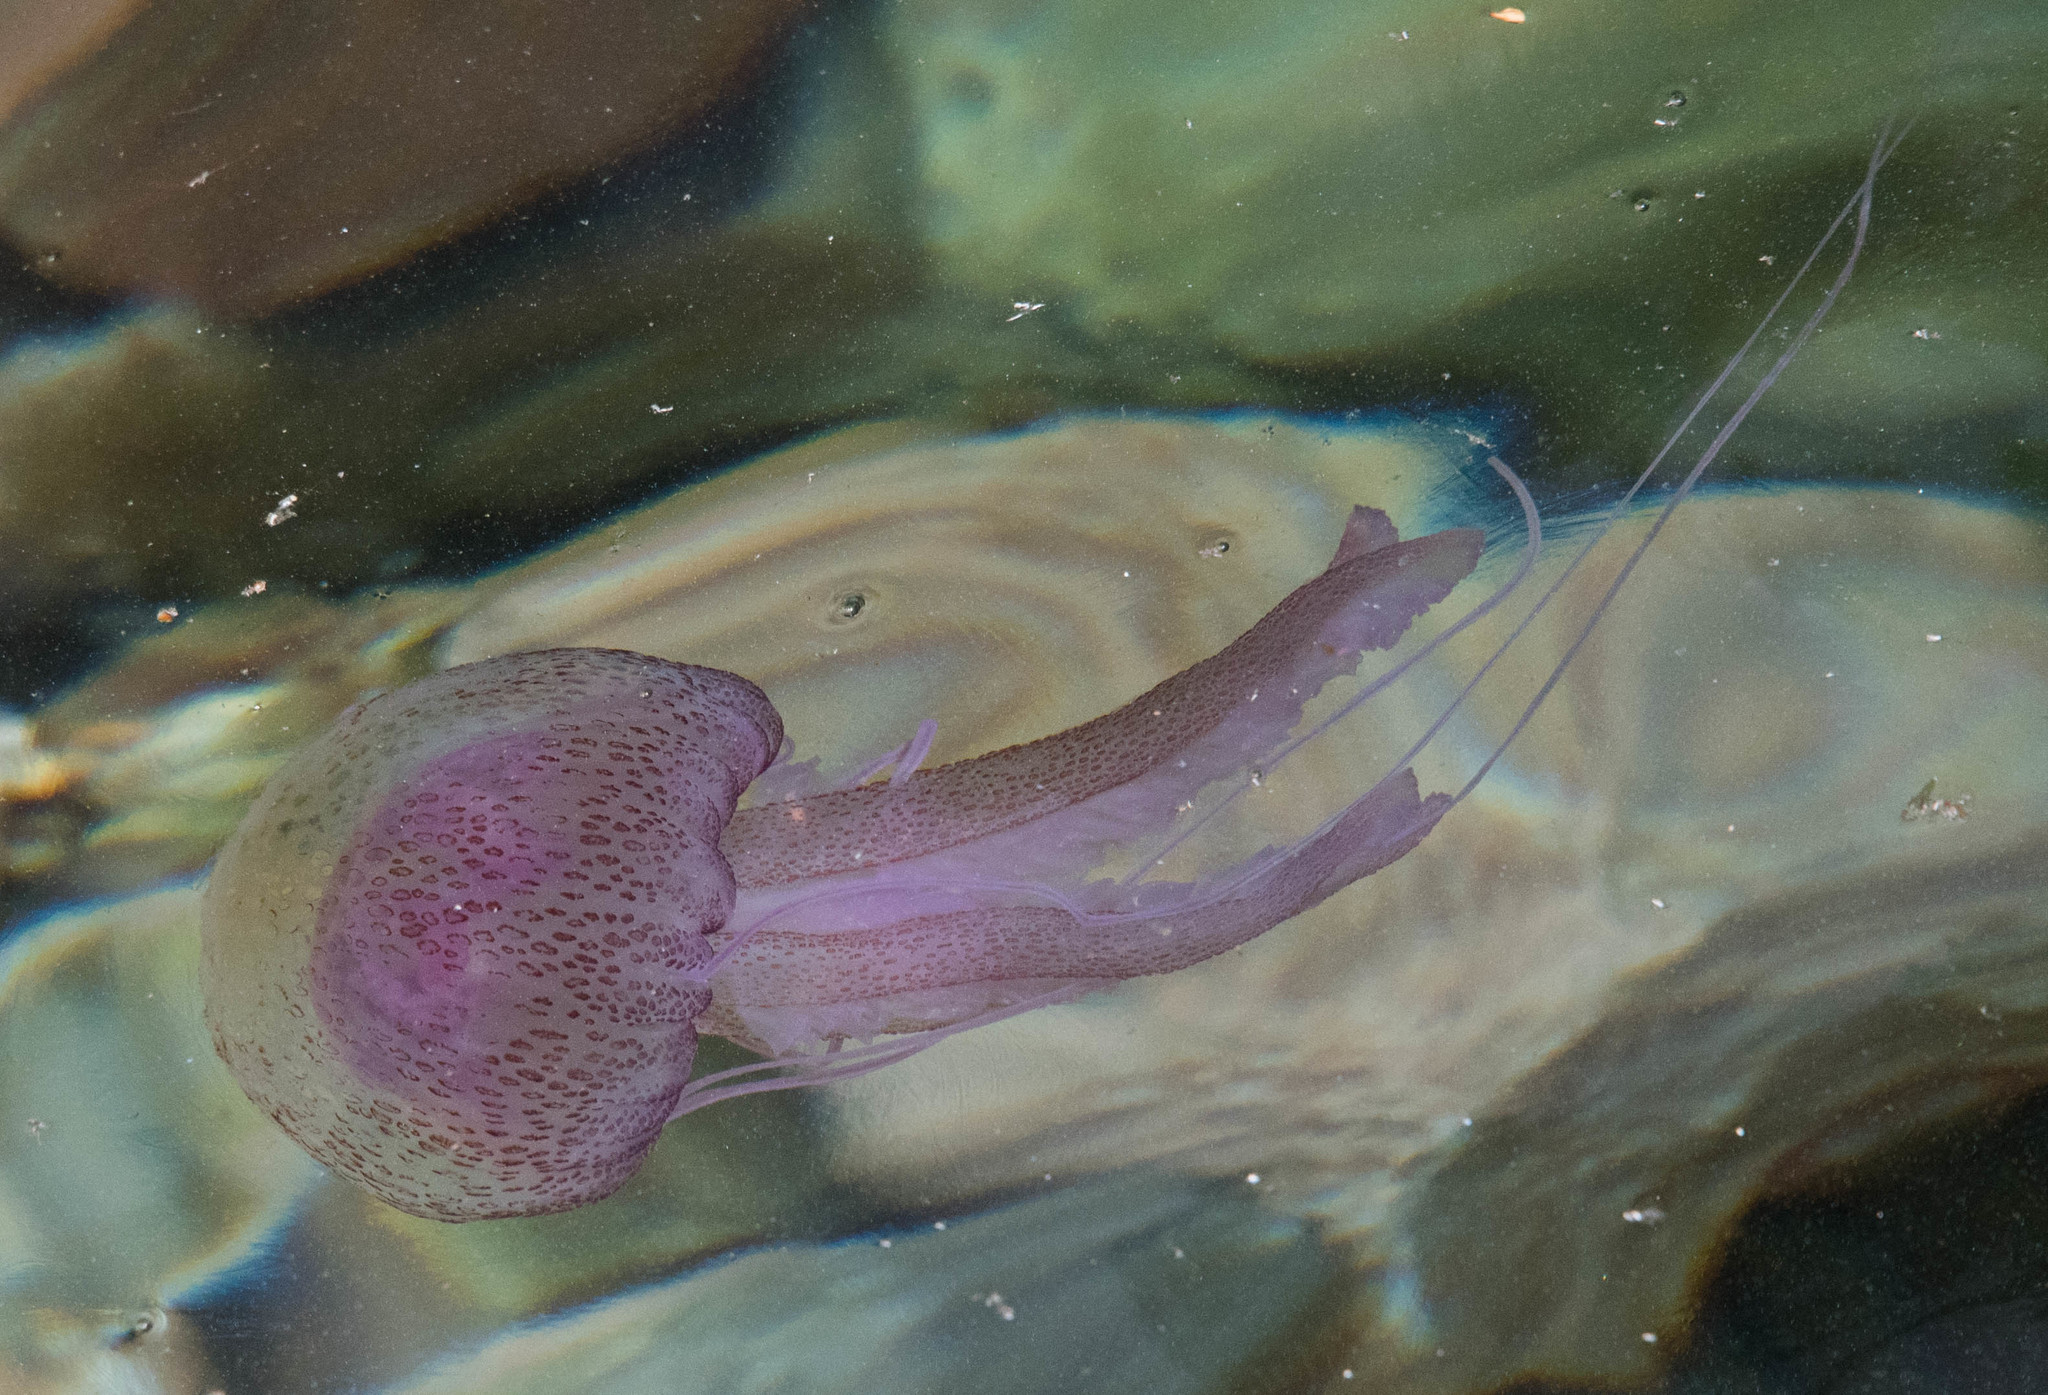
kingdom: Animalia
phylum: Cnidaria
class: Scyphozoa
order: Semaeostomeae
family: Pelagiidae
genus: Pelagia
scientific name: Pelagia noctiluca
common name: Mauve stinger
